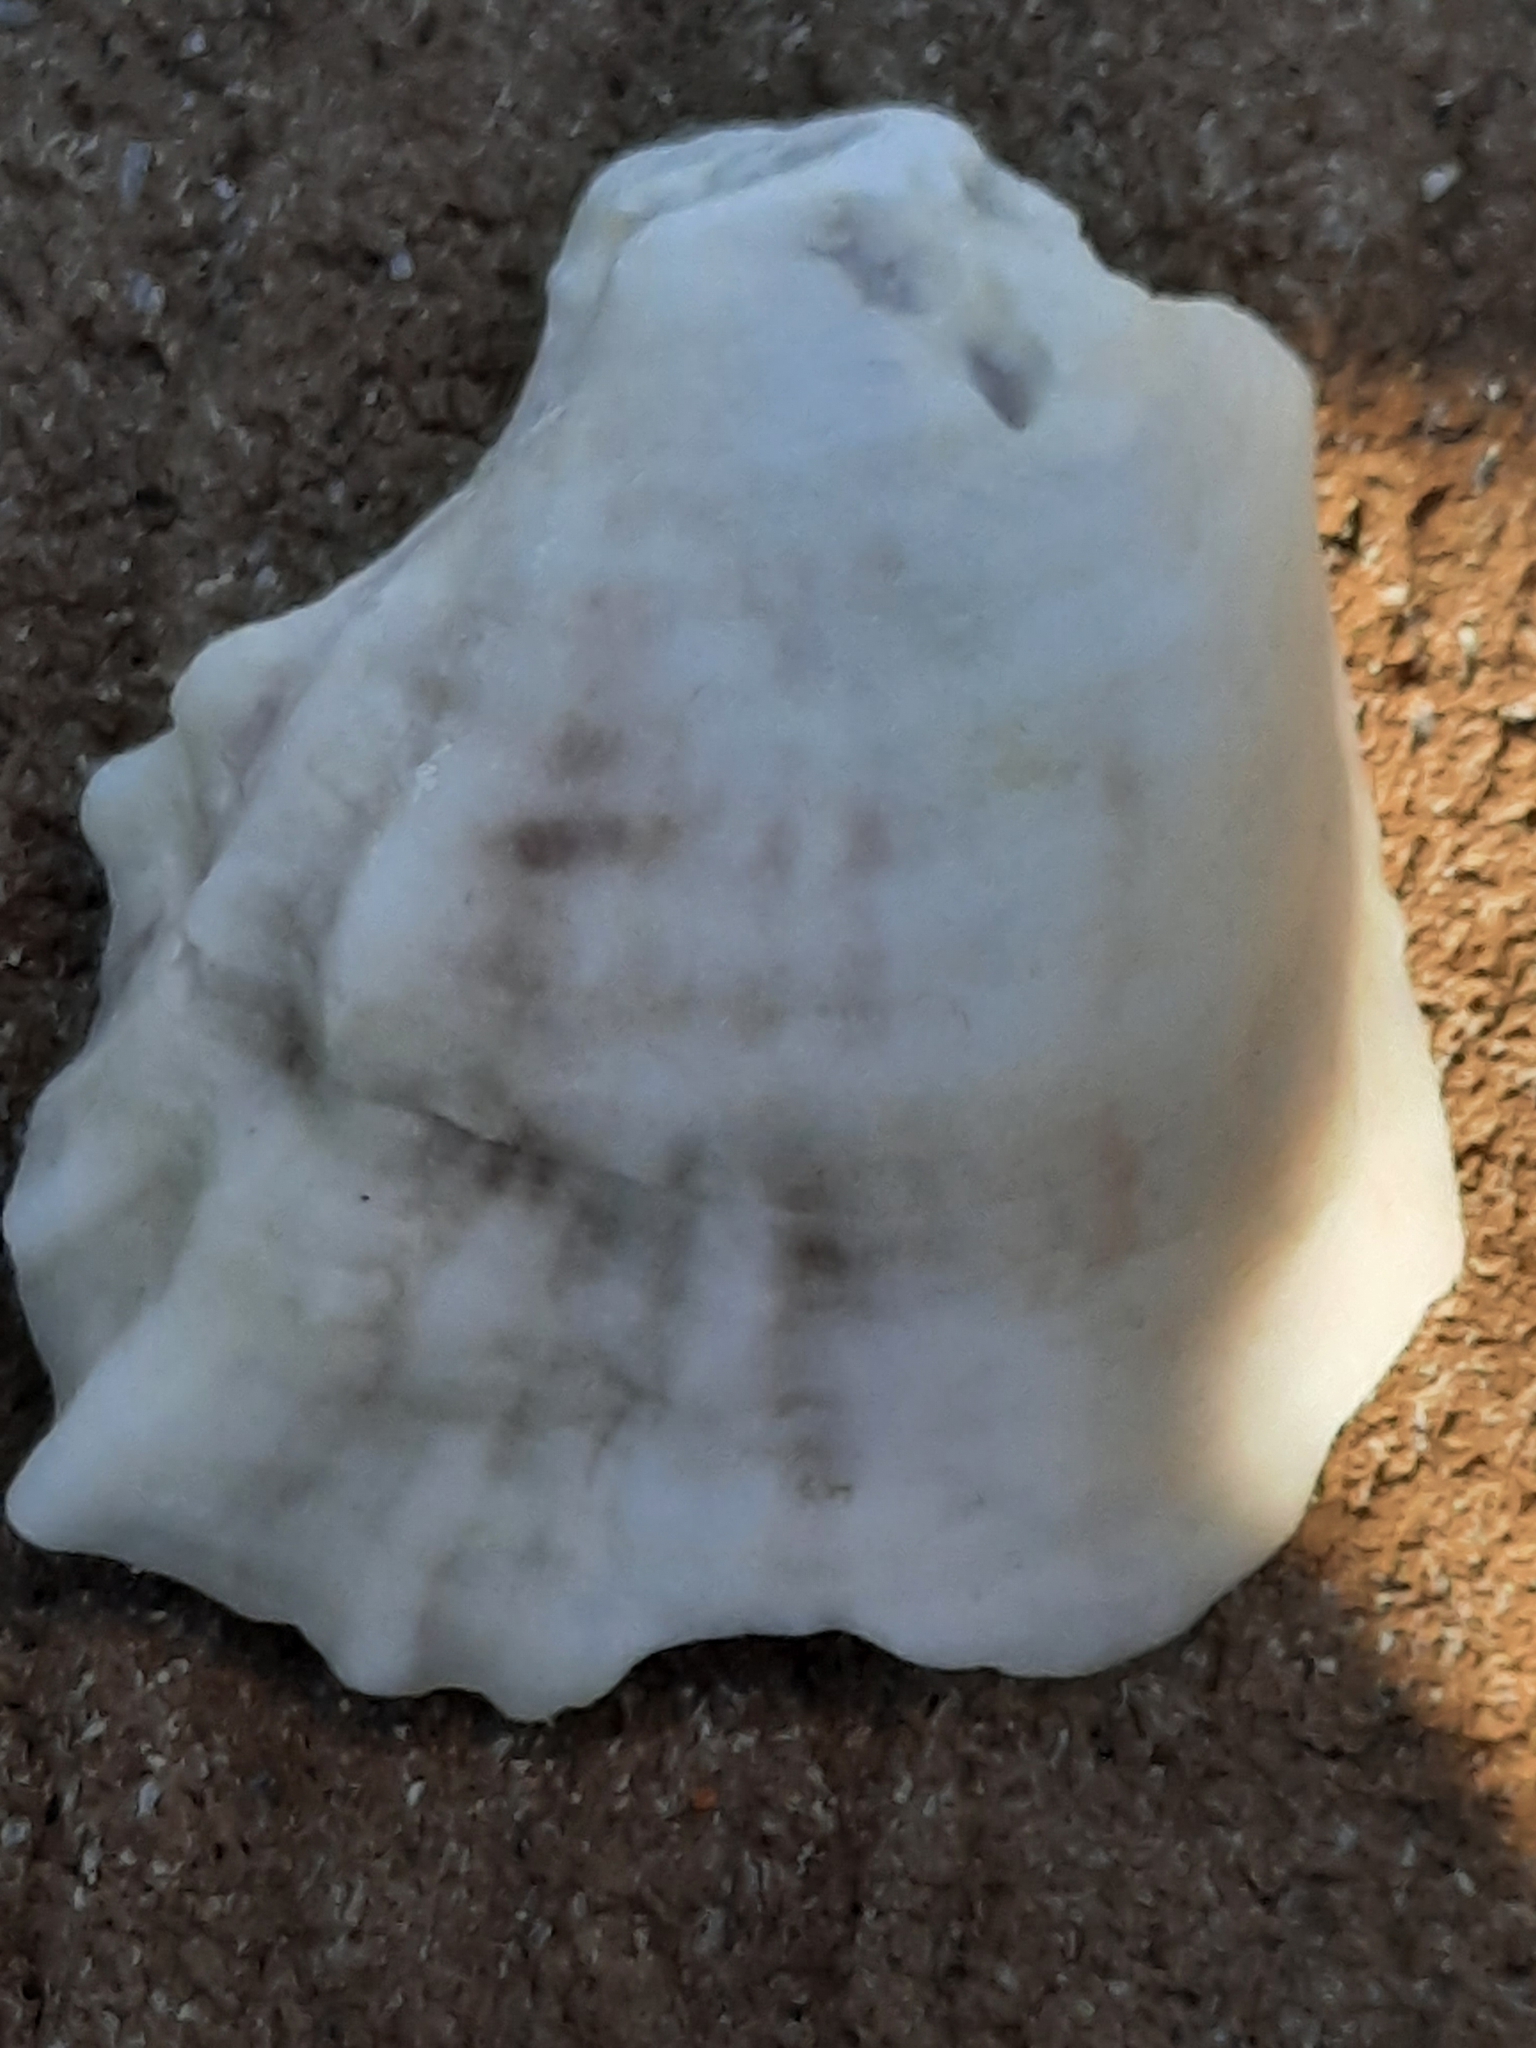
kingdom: Animalia
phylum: Mollusca
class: Bivalvia
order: Ostreida
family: Ostreidae
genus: Crassostrea
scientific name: Crassostrea virginica
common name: American oyster
